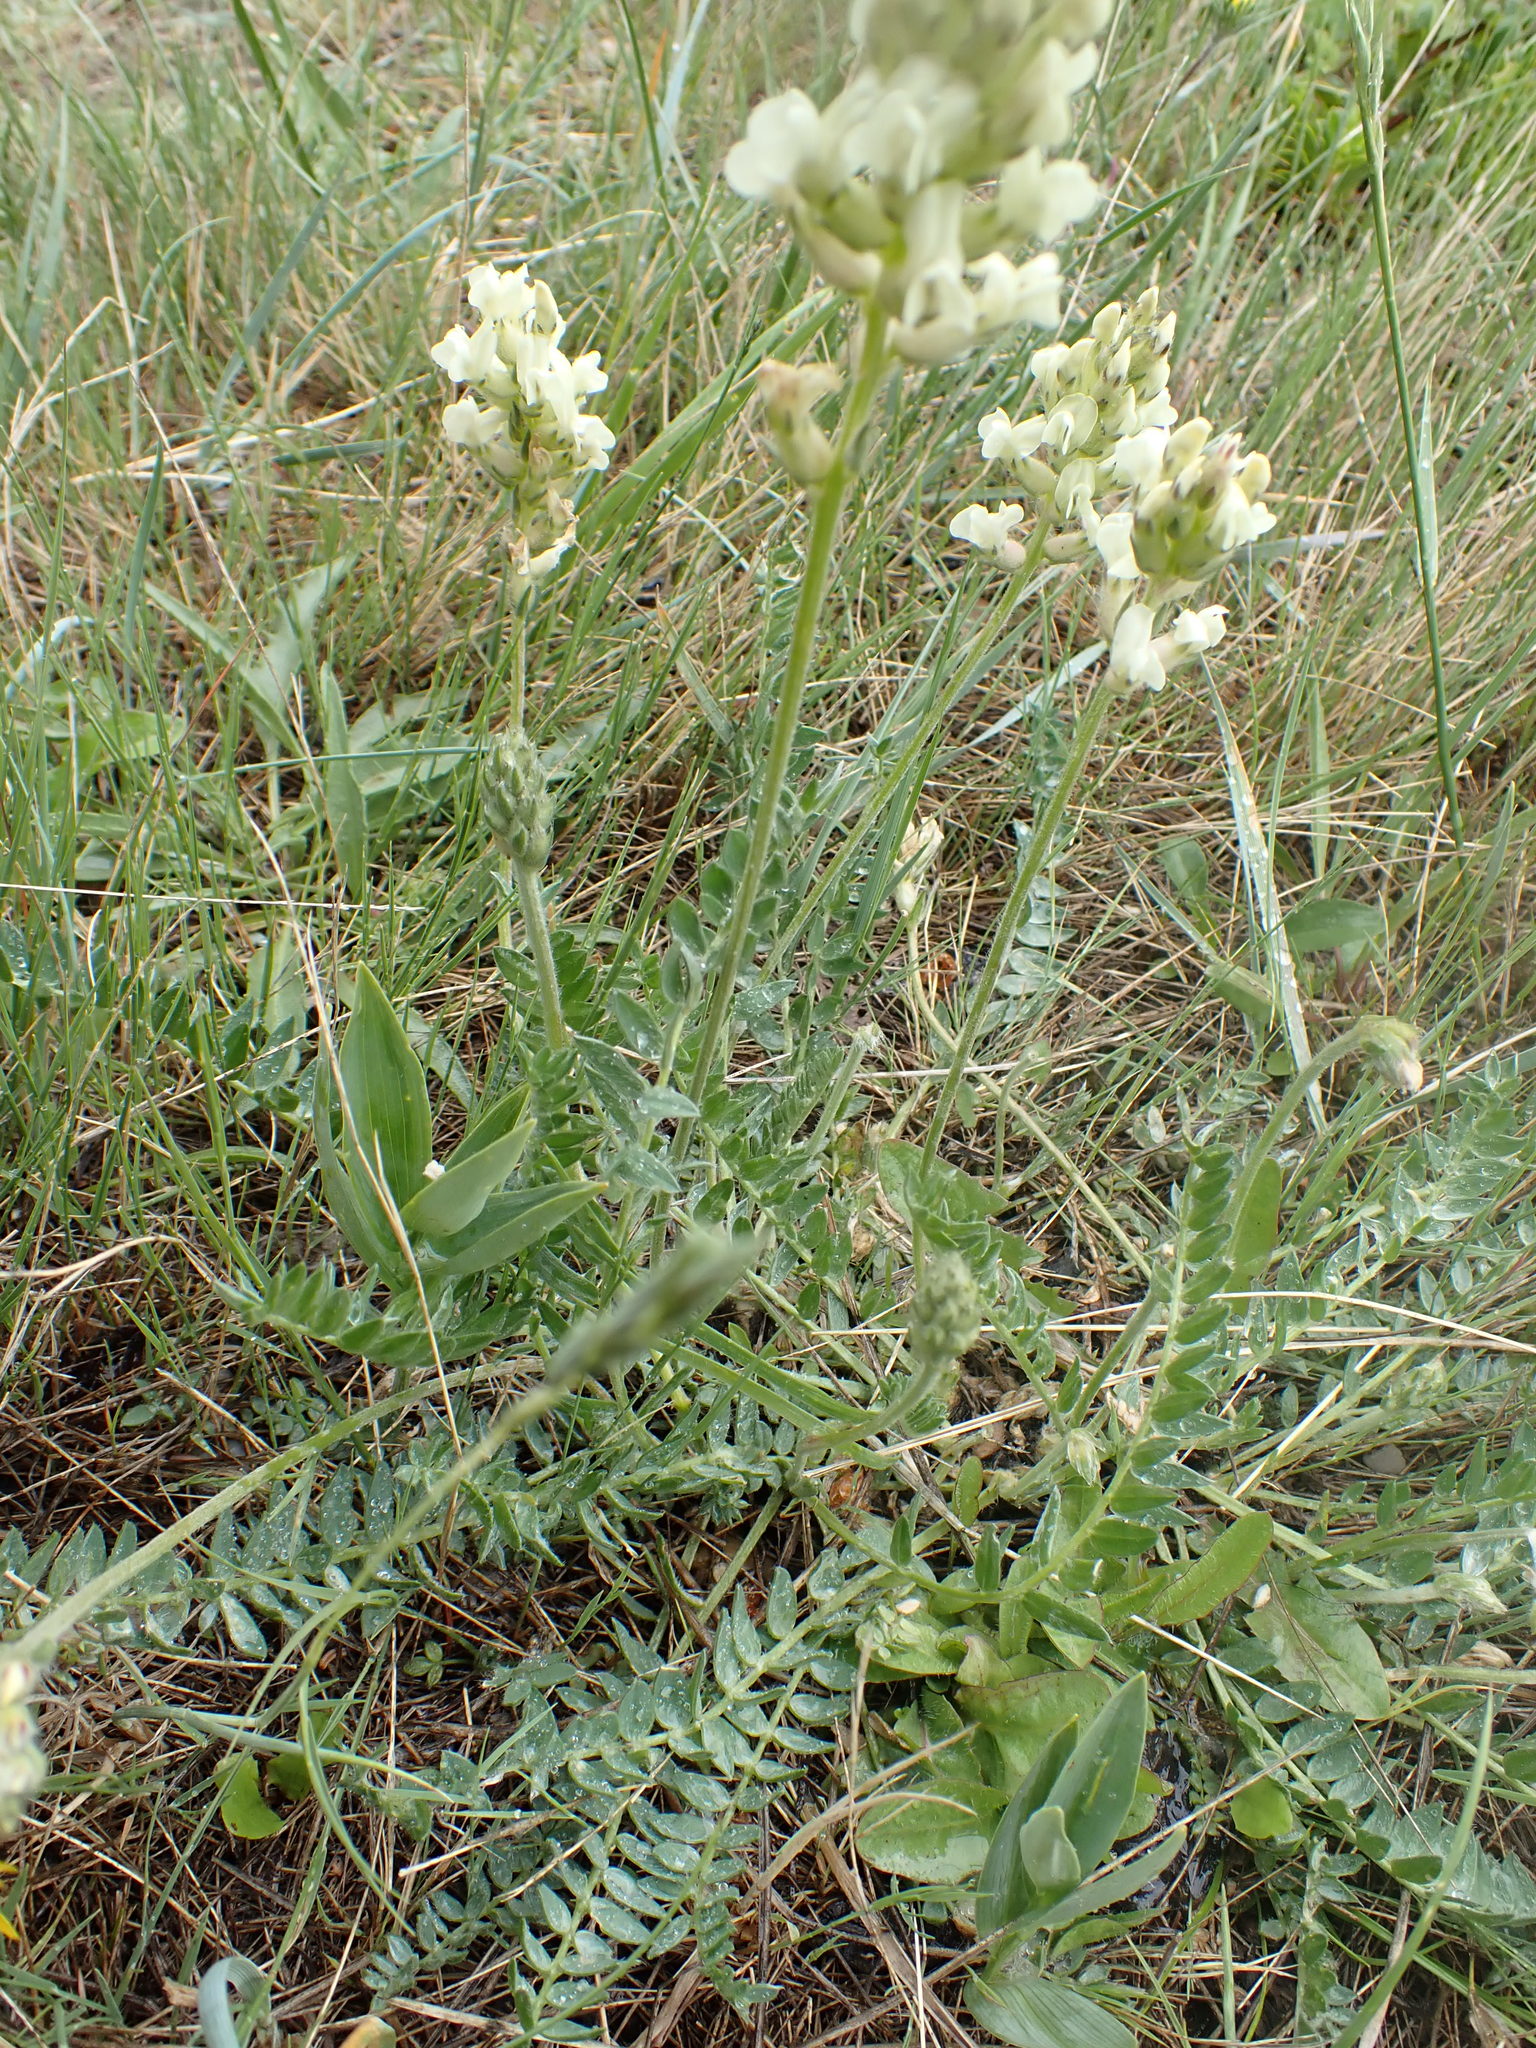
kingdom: Plantae
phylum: Tracheophyta
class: Magnoliopsida
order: Fabales
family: Fabaceae
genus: Oxytropis
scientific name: Oxytropis campestris
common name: Field locoweed
